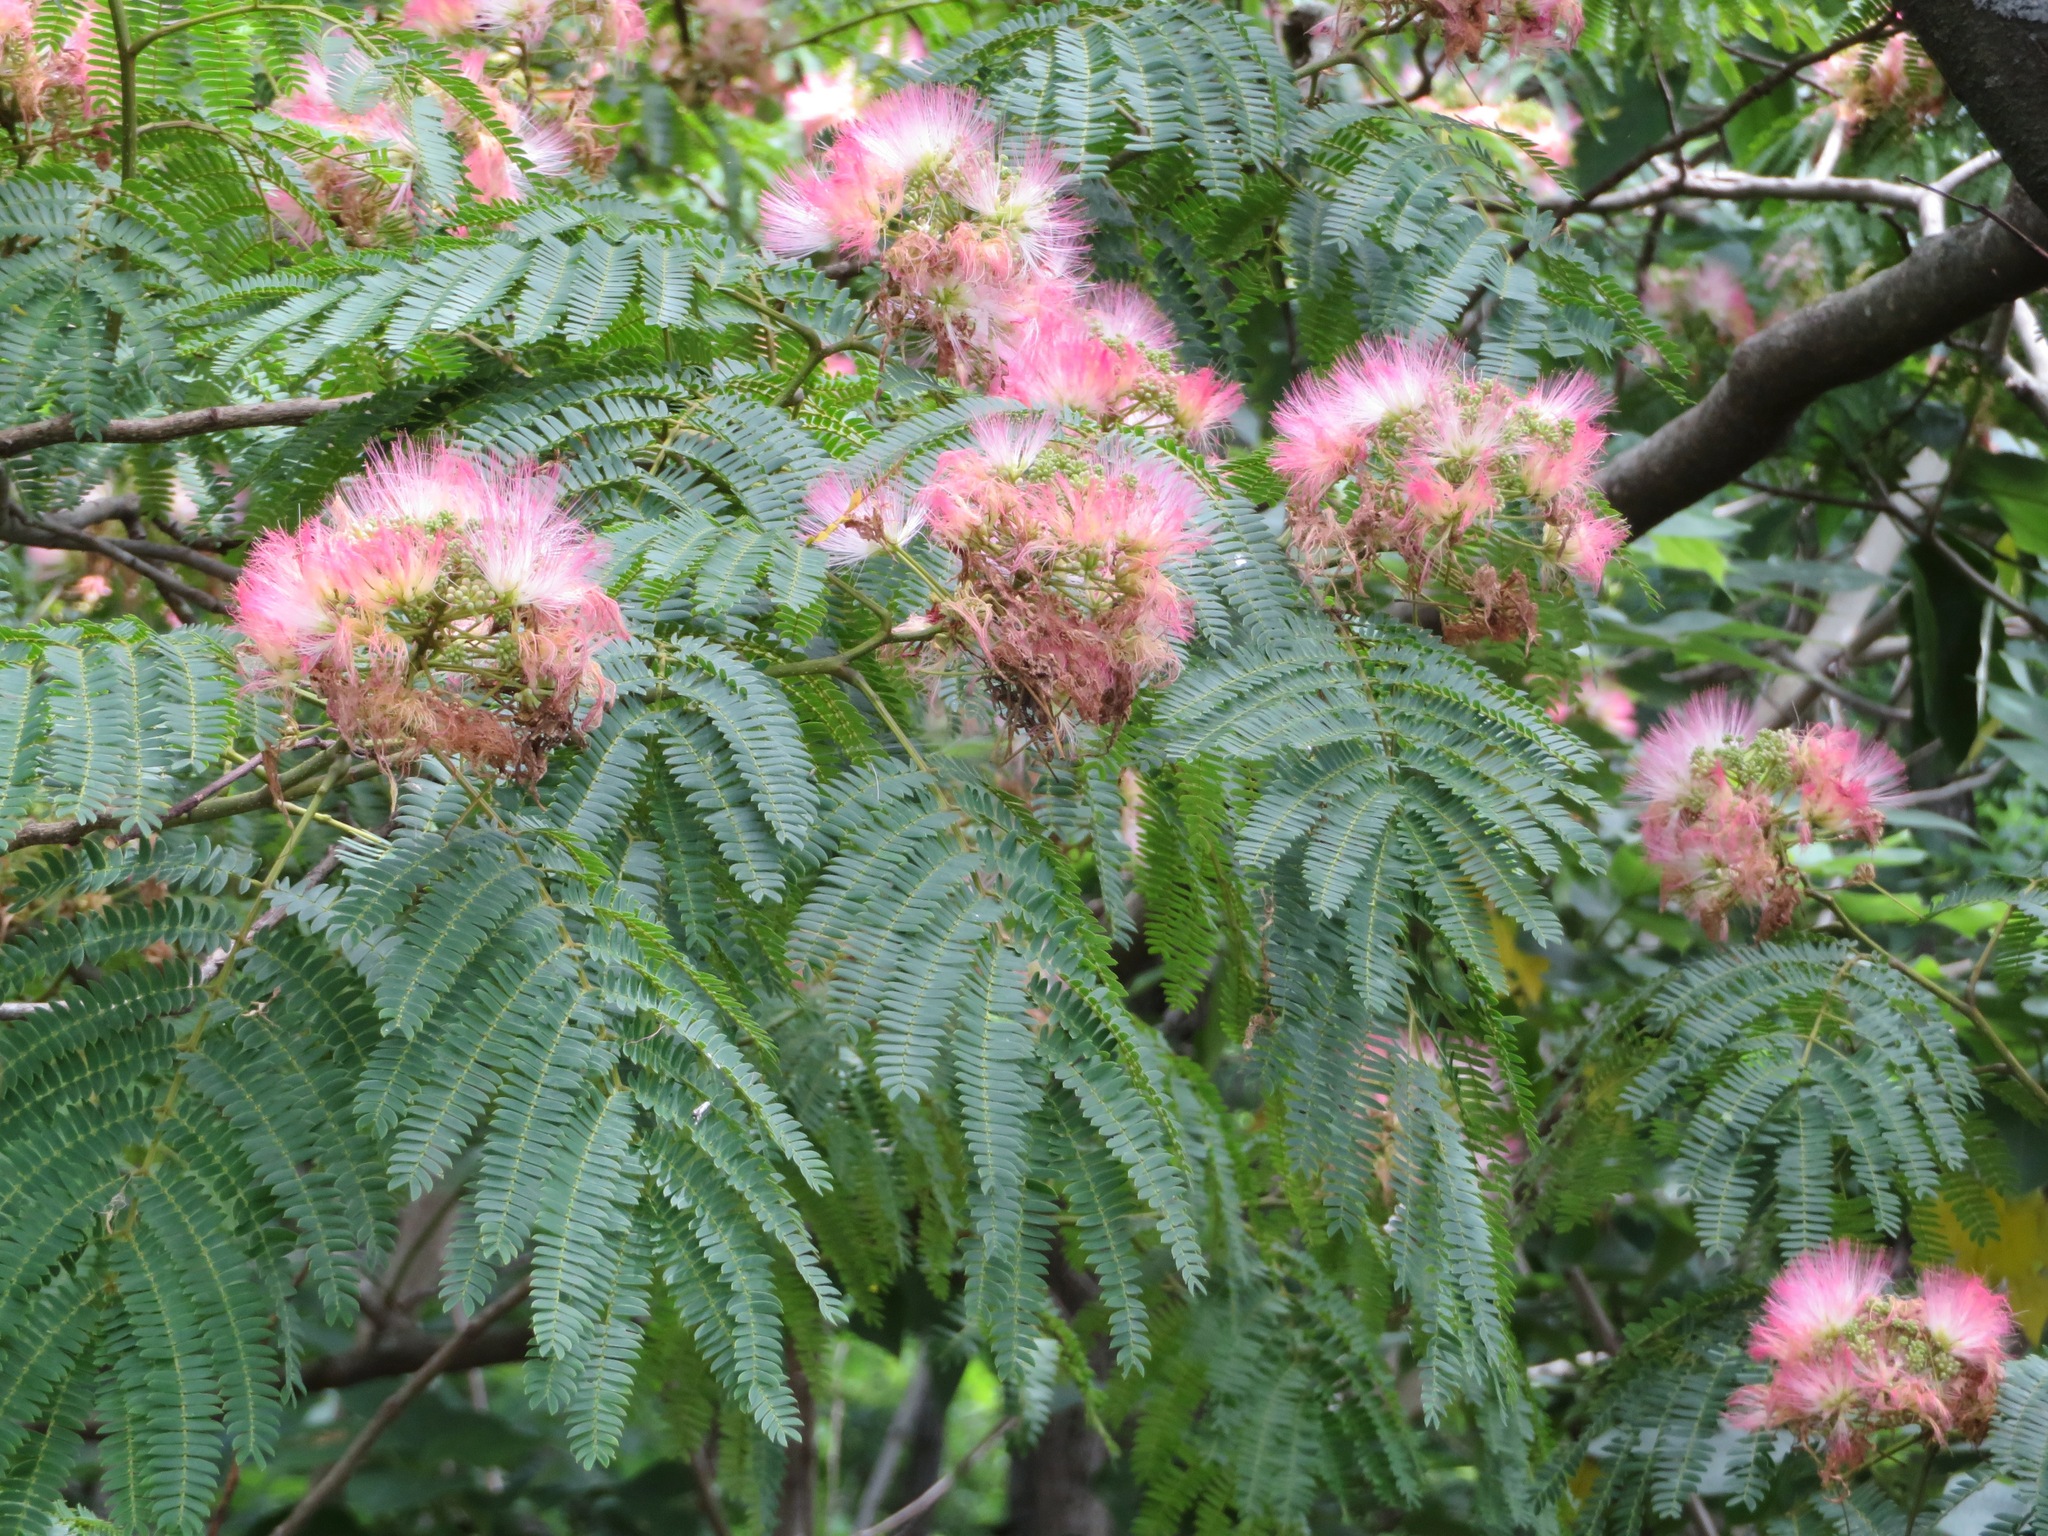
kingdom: Plantae
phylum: Tracheophyta
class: Magnoliopsida
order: Fabales
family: Fabaceae
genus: Albizia
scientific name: Albizia julibrissin
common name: Silktree
